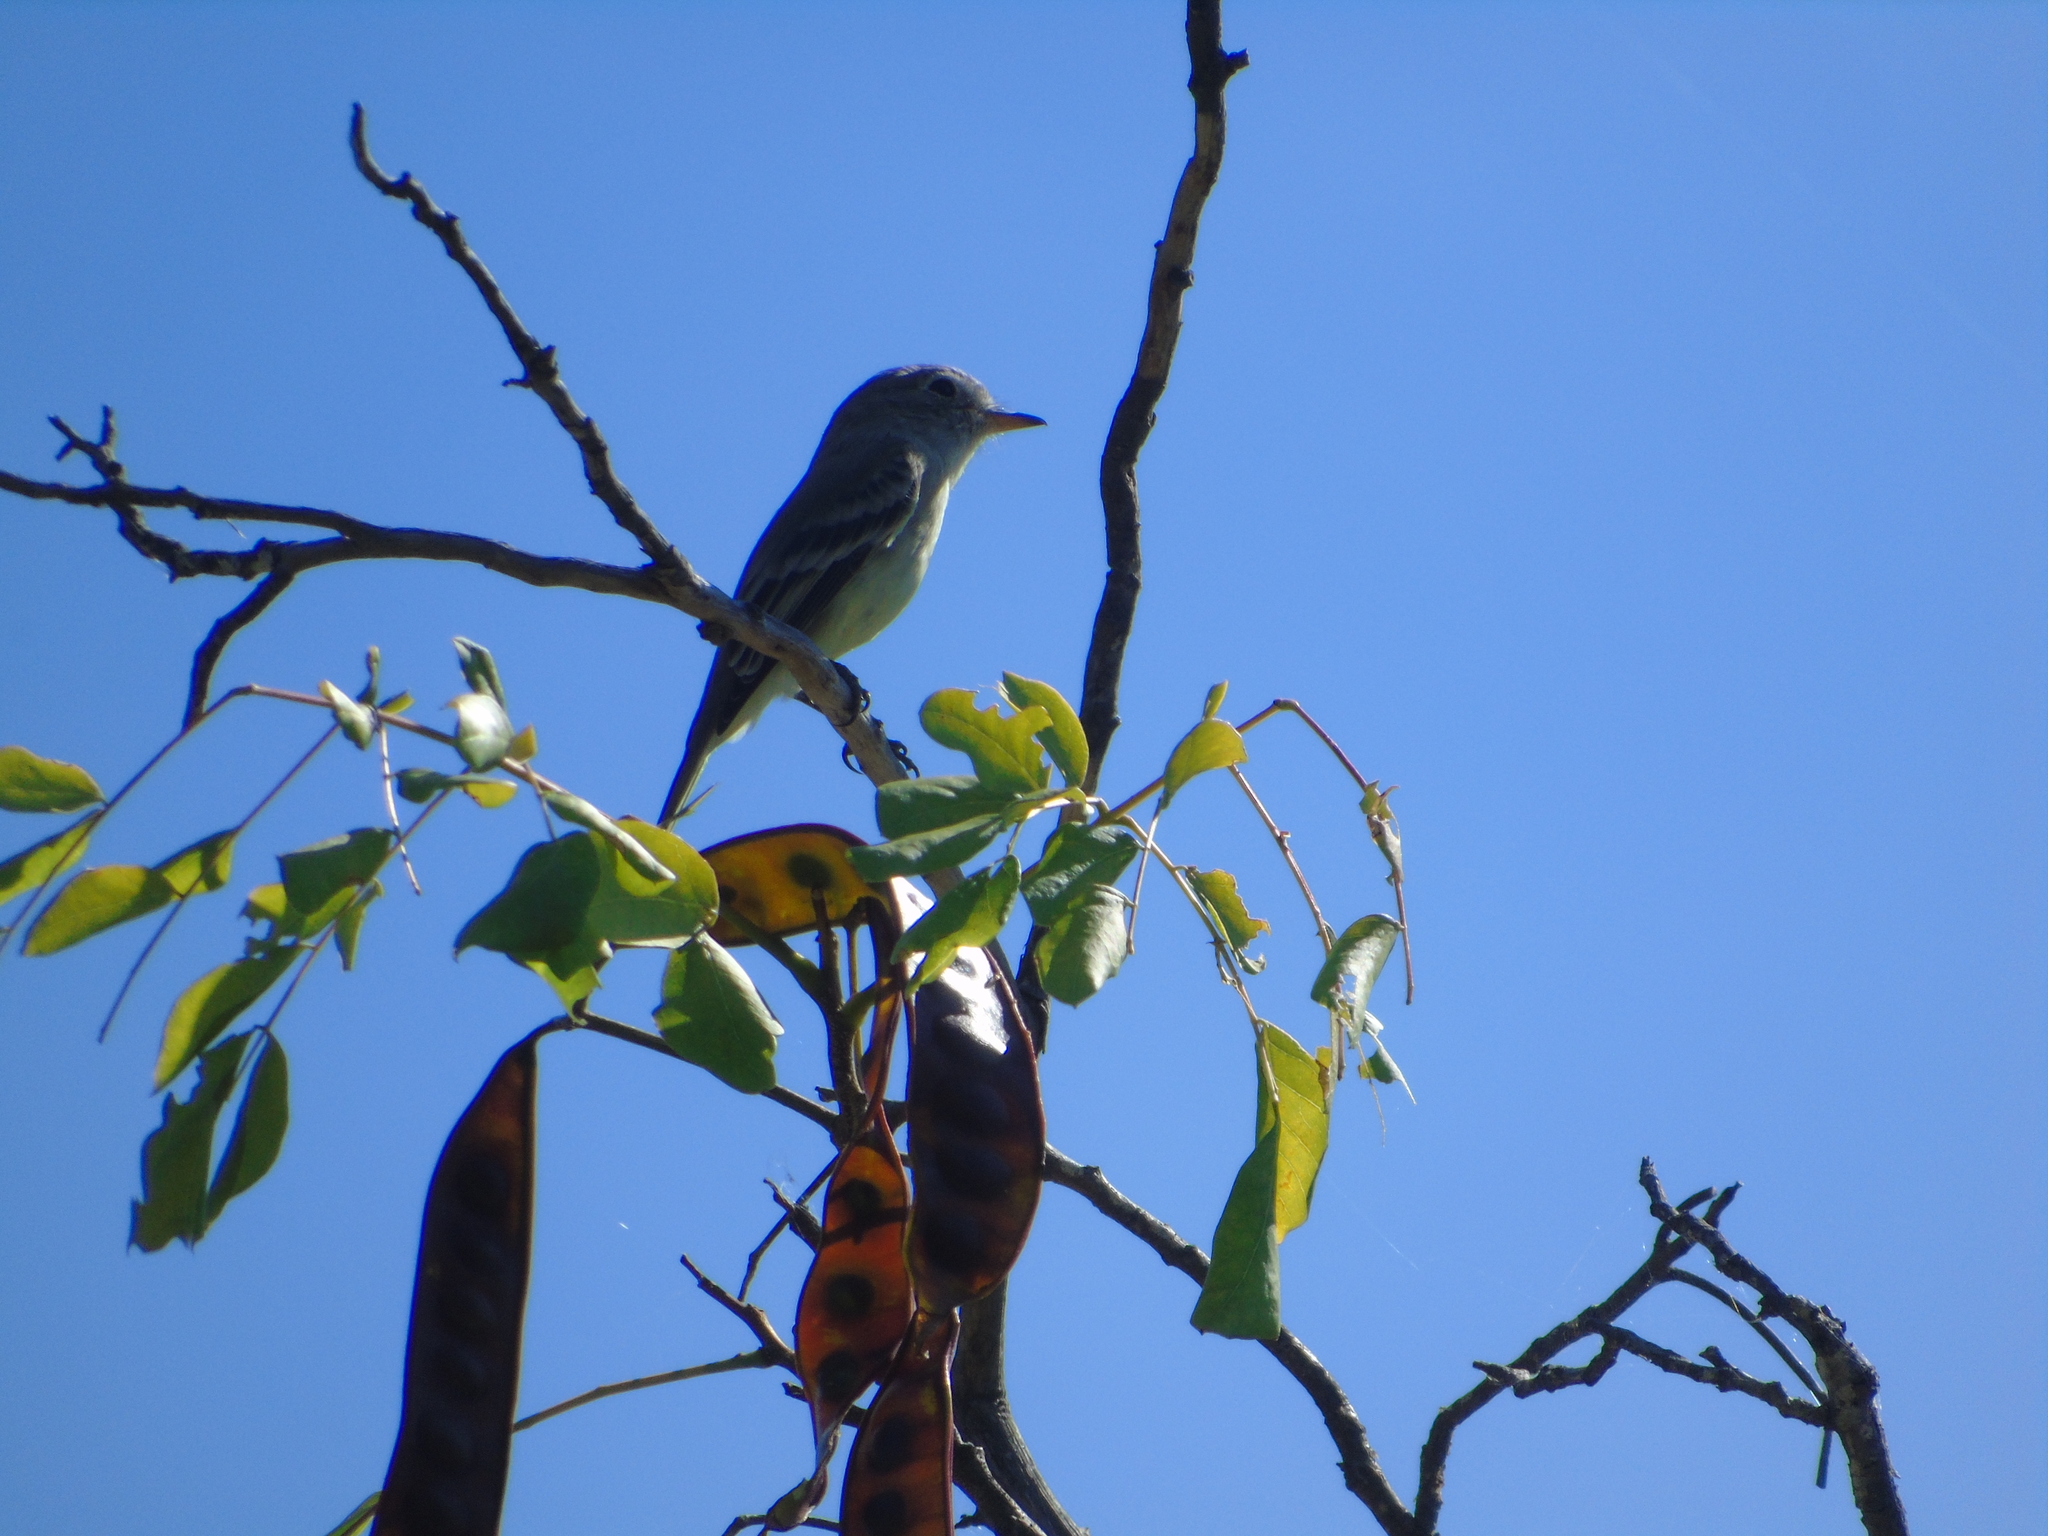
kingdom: Animalia
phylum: Chordata
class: Aves
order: Passeriformes
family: Tyrannidae
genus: Empidonax
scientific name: Empidonax wrightii
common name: Gray flycatcher
